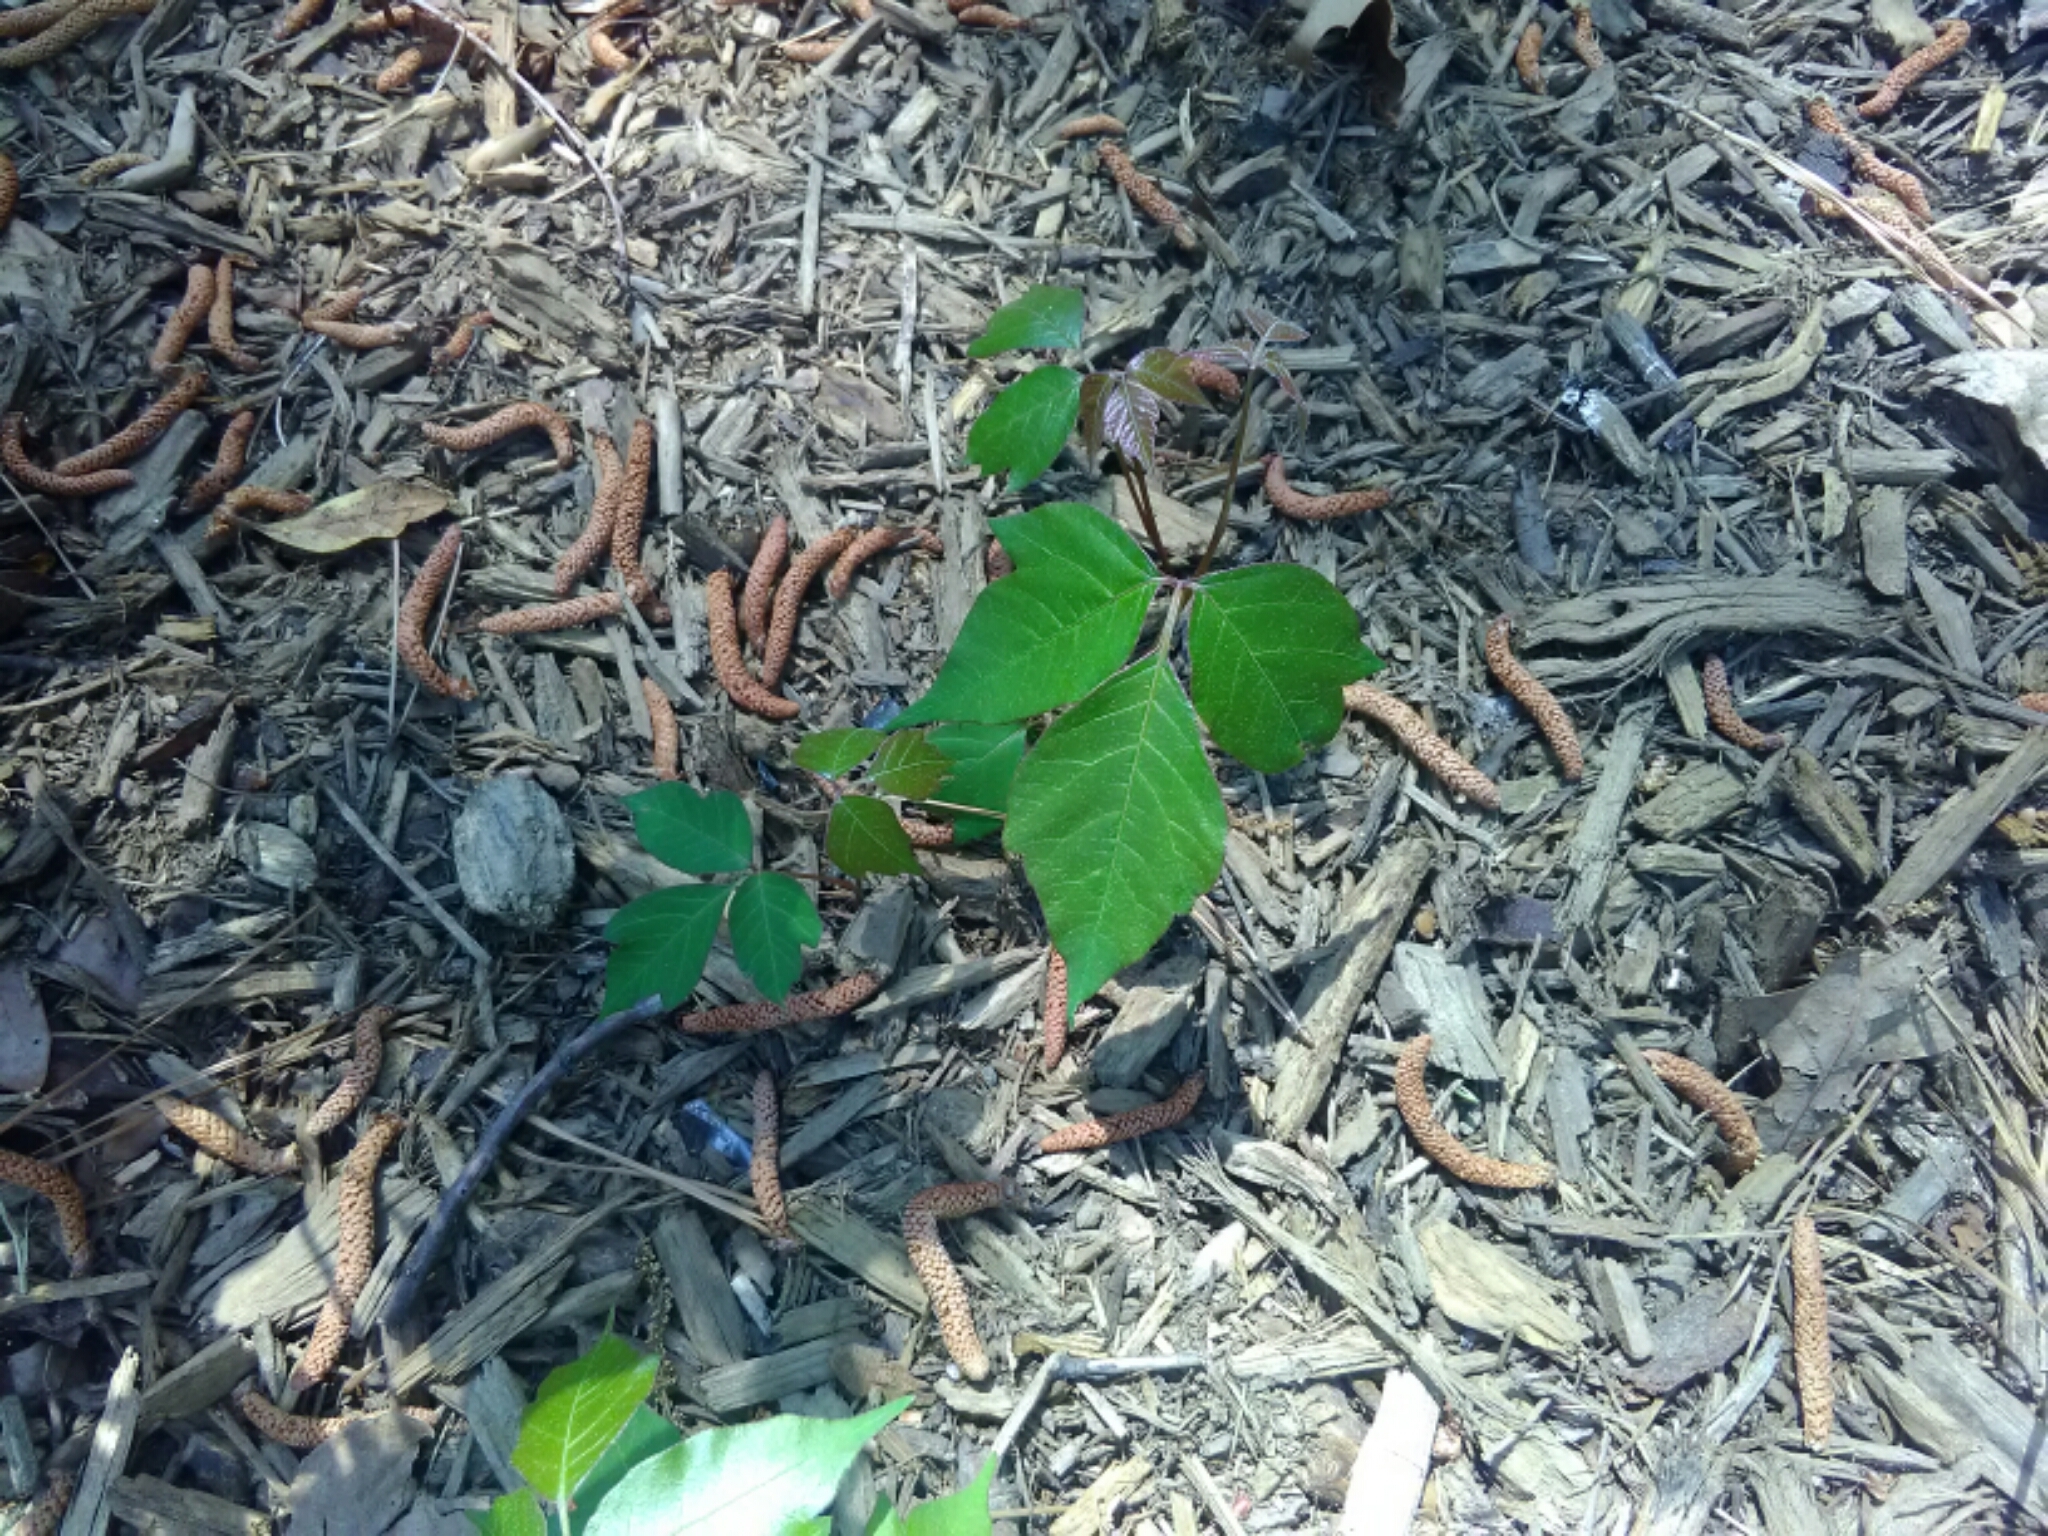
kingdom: Plantae
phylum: Tracheophyta
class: Magnoliopsida
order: Sapindales
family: Anacardiaceae
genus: Toxicodendron
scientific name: Toxicodendron radicans
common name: Poison ivy
